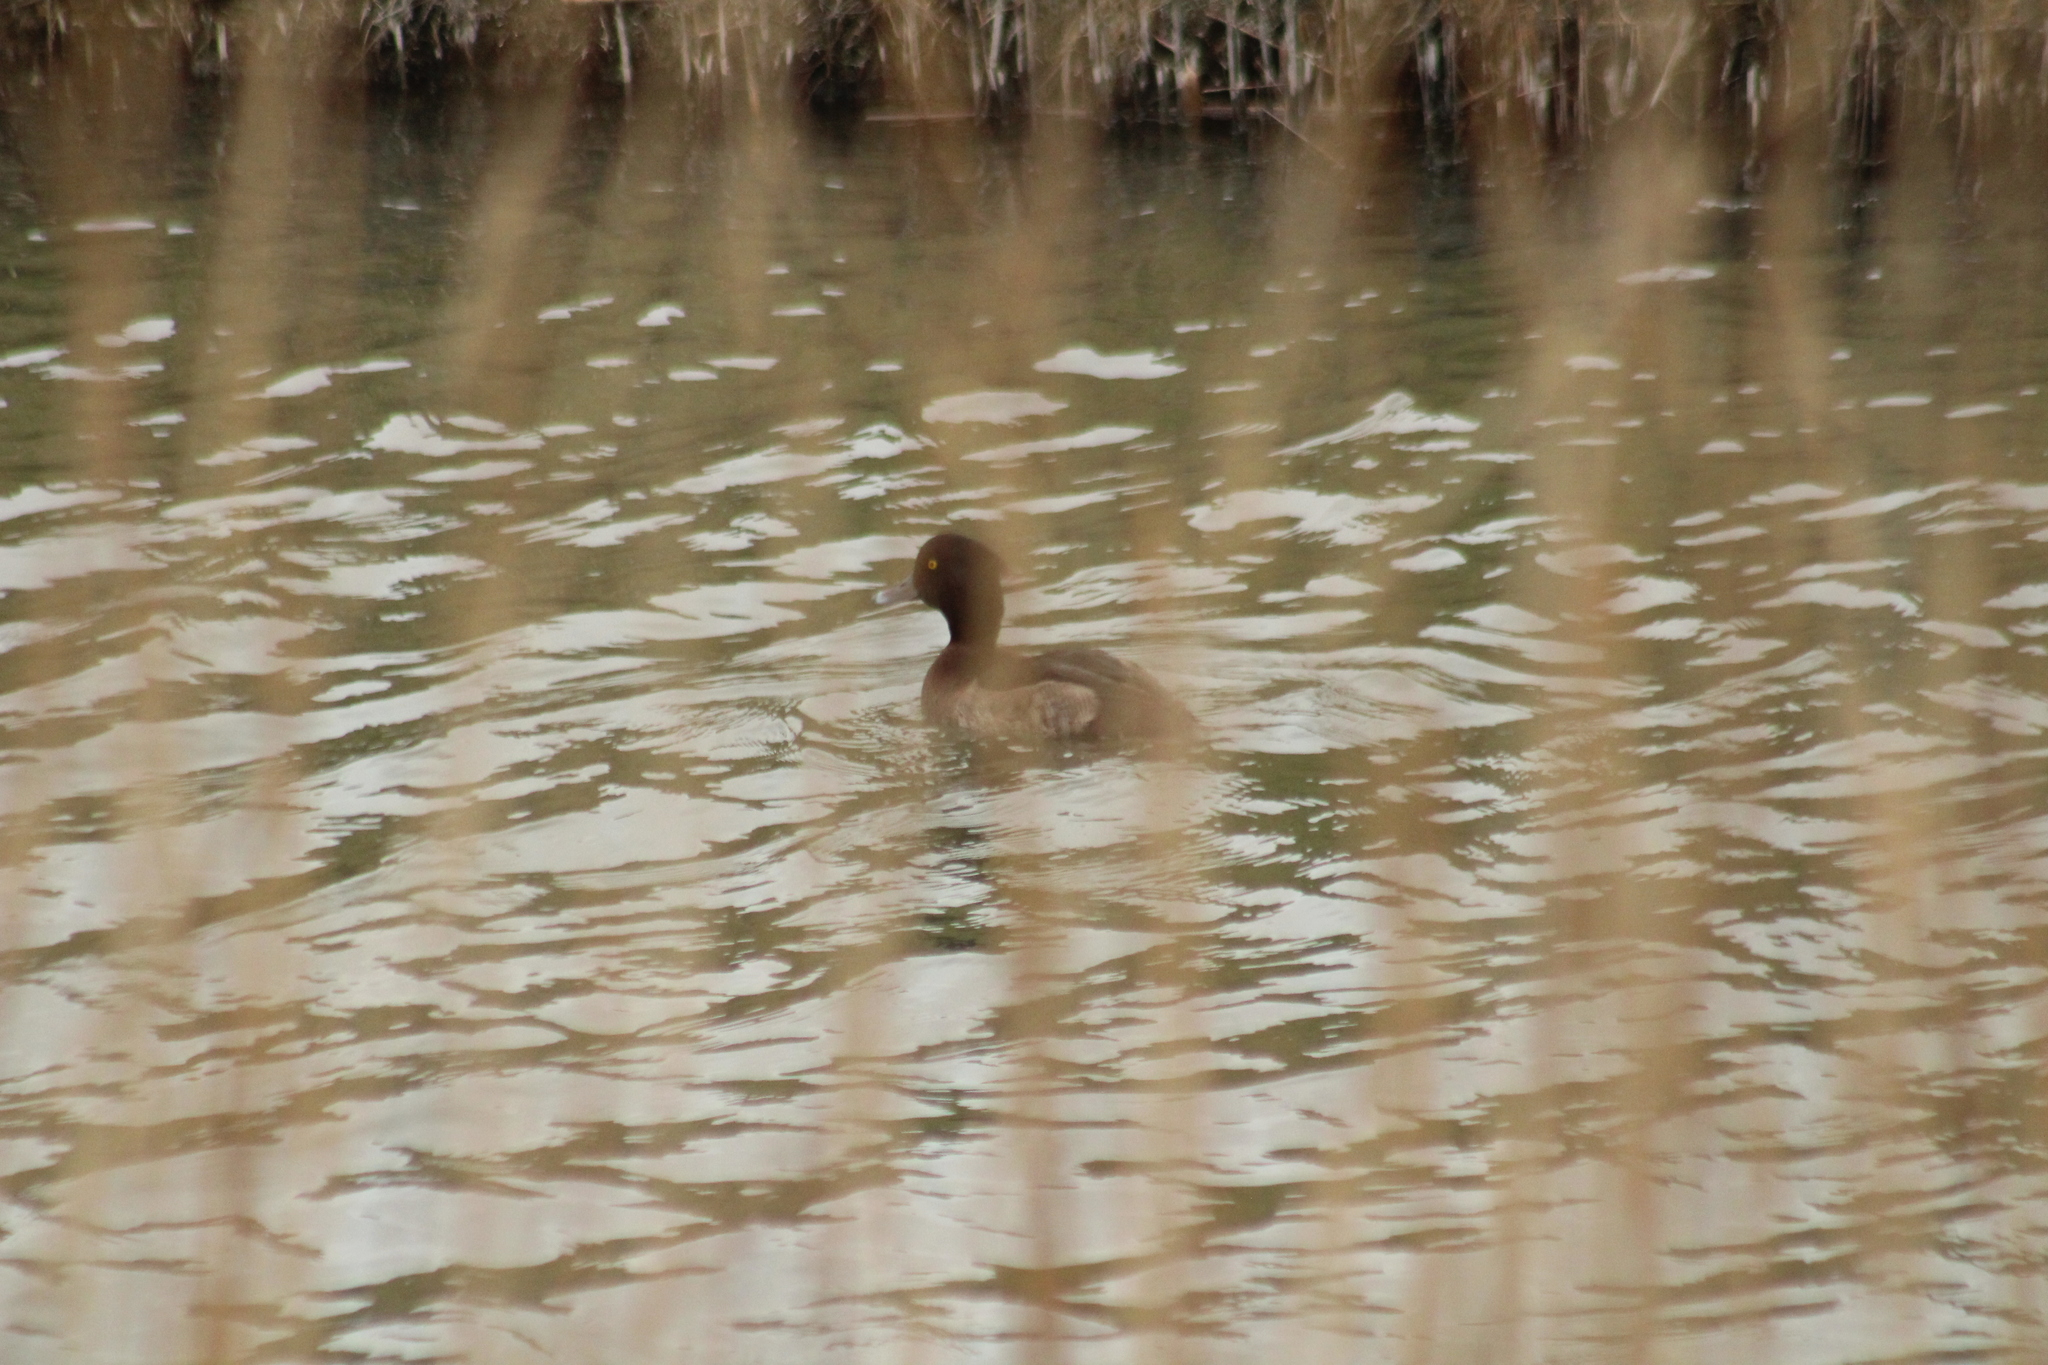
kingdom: Animalia
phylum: Chordata
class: Aves
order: Anseriformes
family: Anatidae
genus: Aythya
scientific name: Aythya fuligula
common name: Tufted duck
